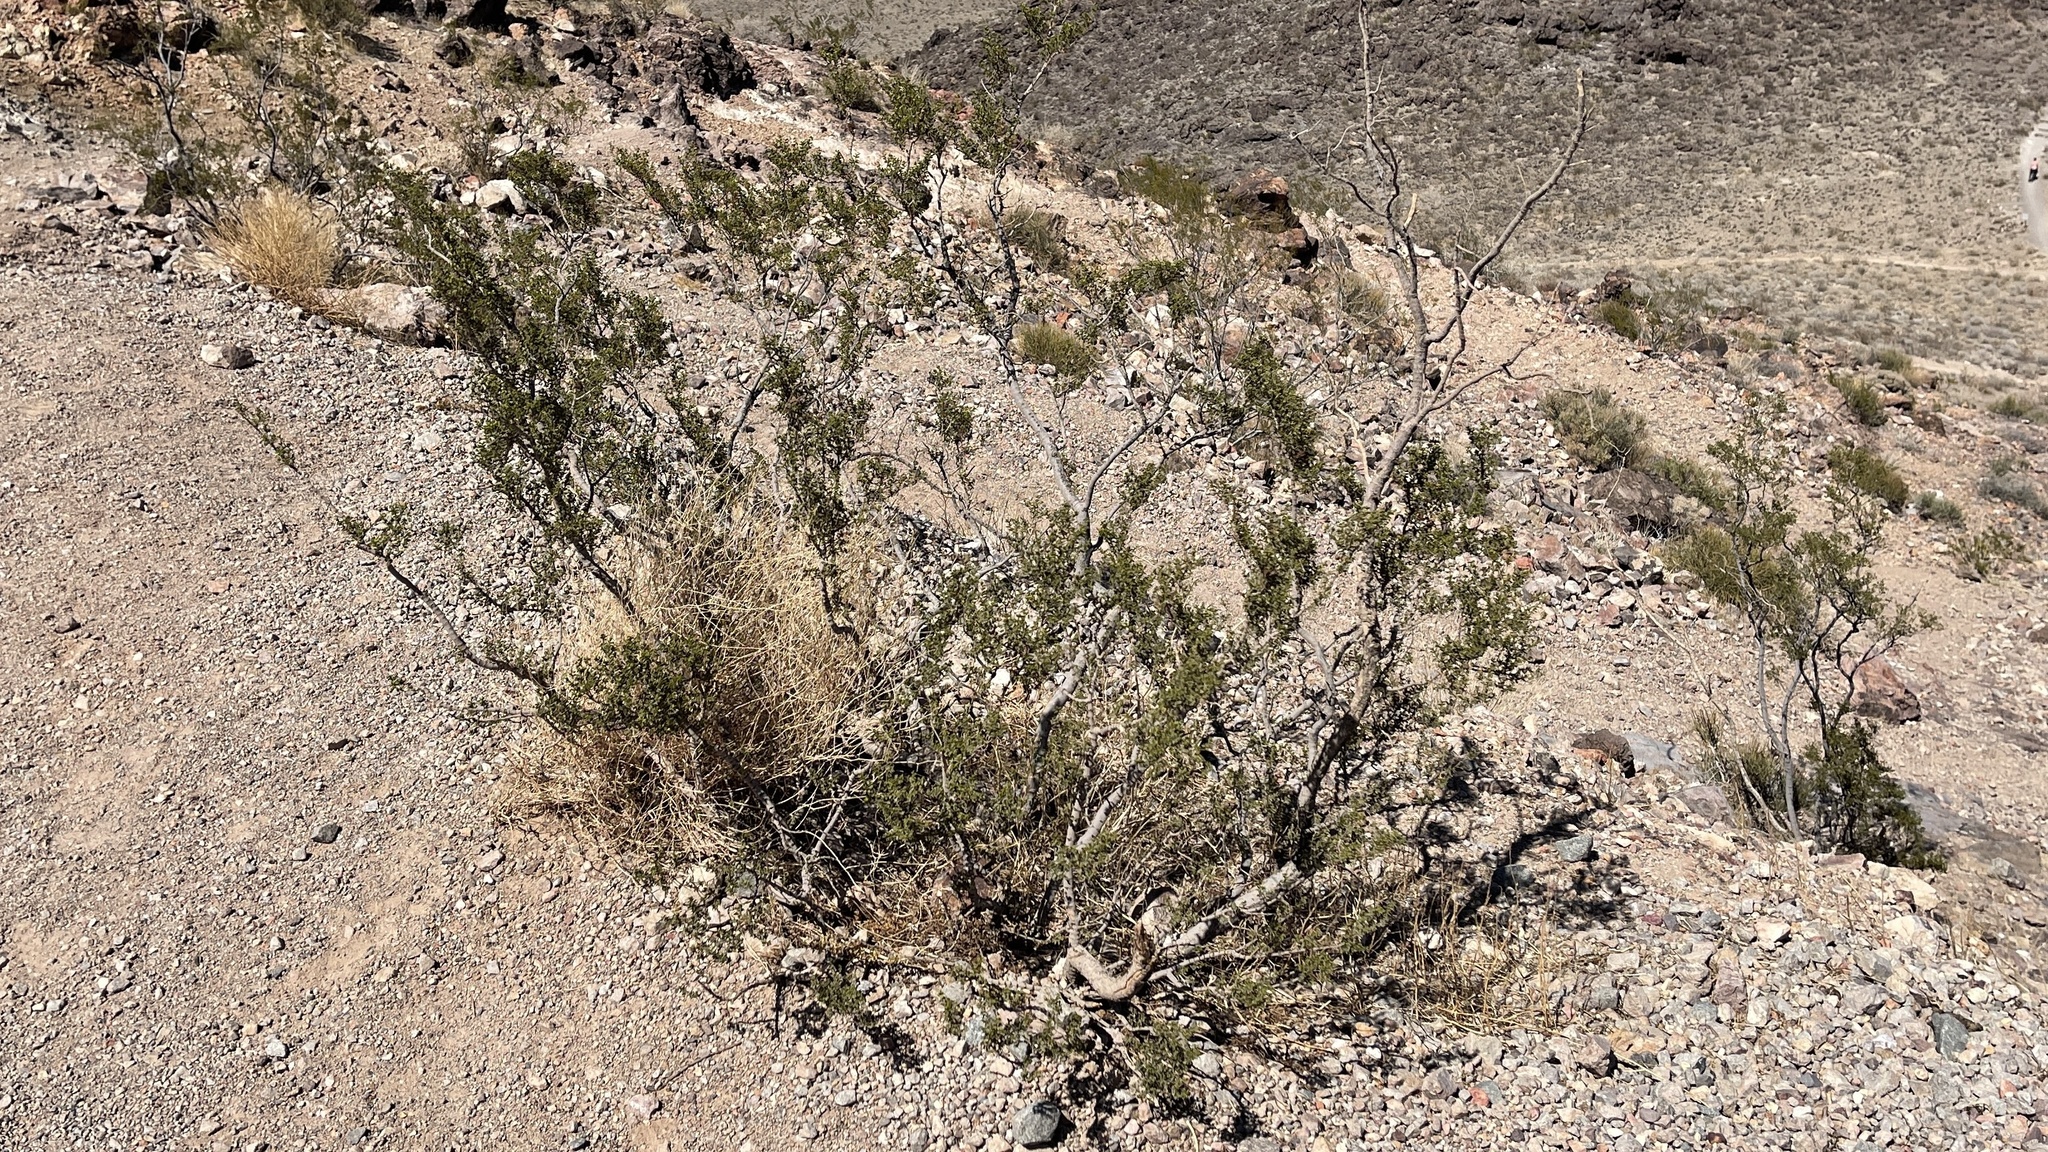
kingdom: Plantae
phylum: Tracheophyta
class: Magnoliopsida
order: Zygophyllales
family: Zygophyllaceae
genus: Larrea
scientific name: Larrea tridentata
